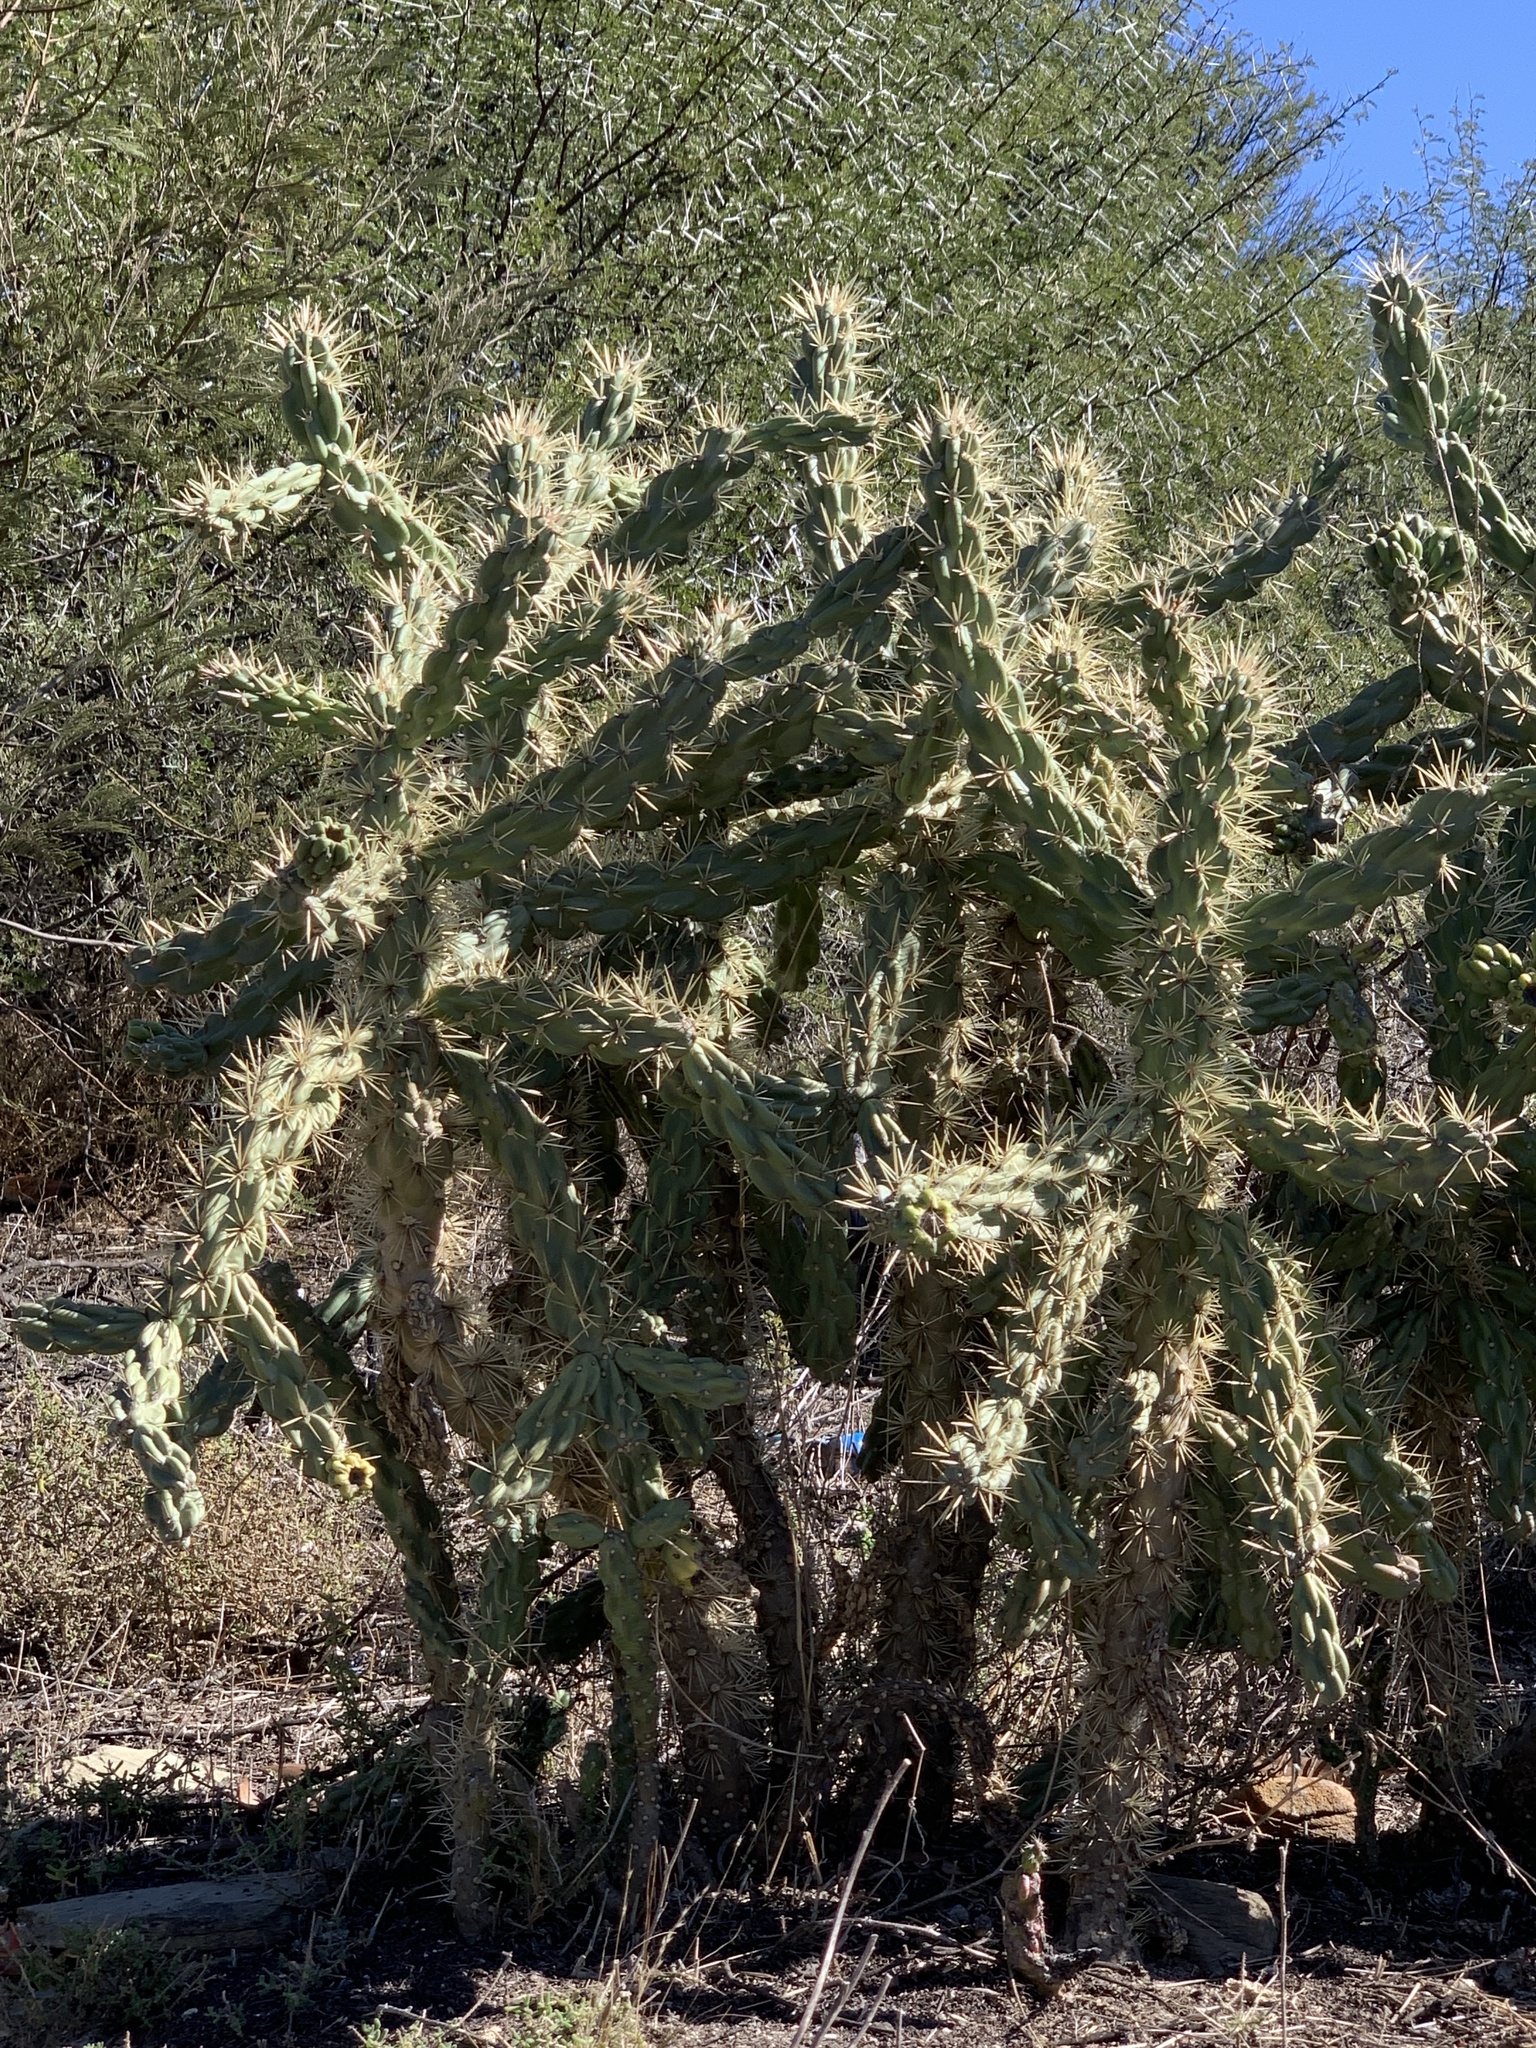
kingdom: Plantae
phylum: Tracheophyta
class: Magnoliopsida
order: Caryophyllales
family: Cactaceae
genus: Cylindropuntia
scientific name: Cylindropuntia fulgida
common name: Jumping cholla
